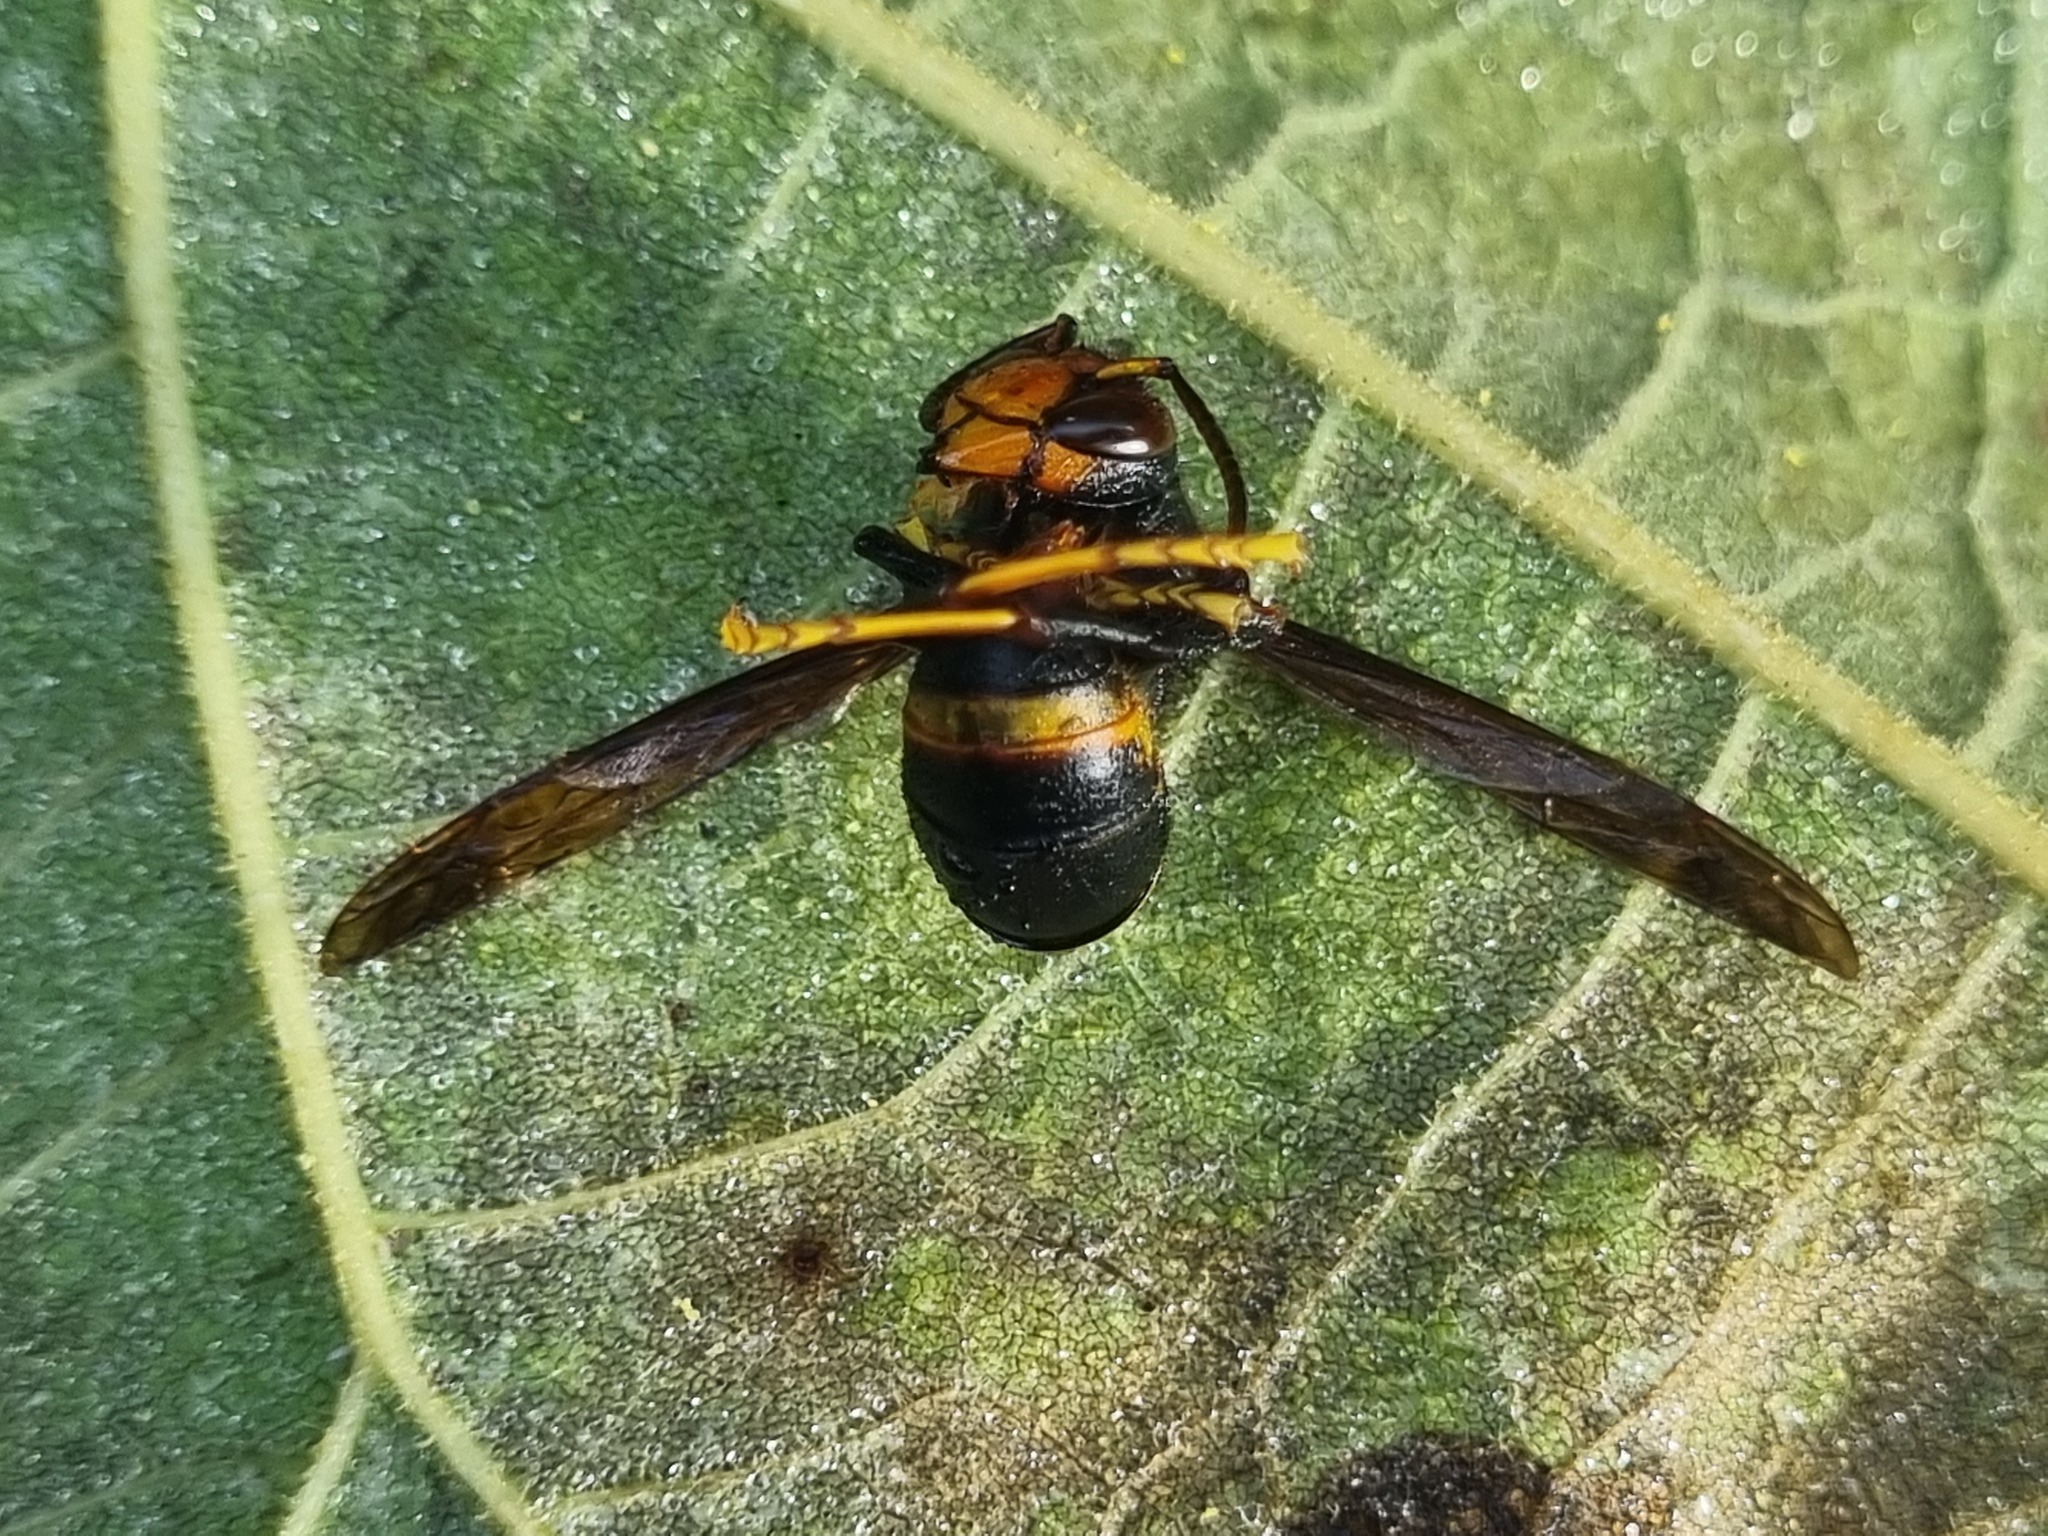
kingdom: Animalia
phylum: Arthropoda
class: Insecta
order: Hymenoptera
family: Vespidae
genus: Vespa
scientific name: Vespa velutina
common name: Asian hornet
